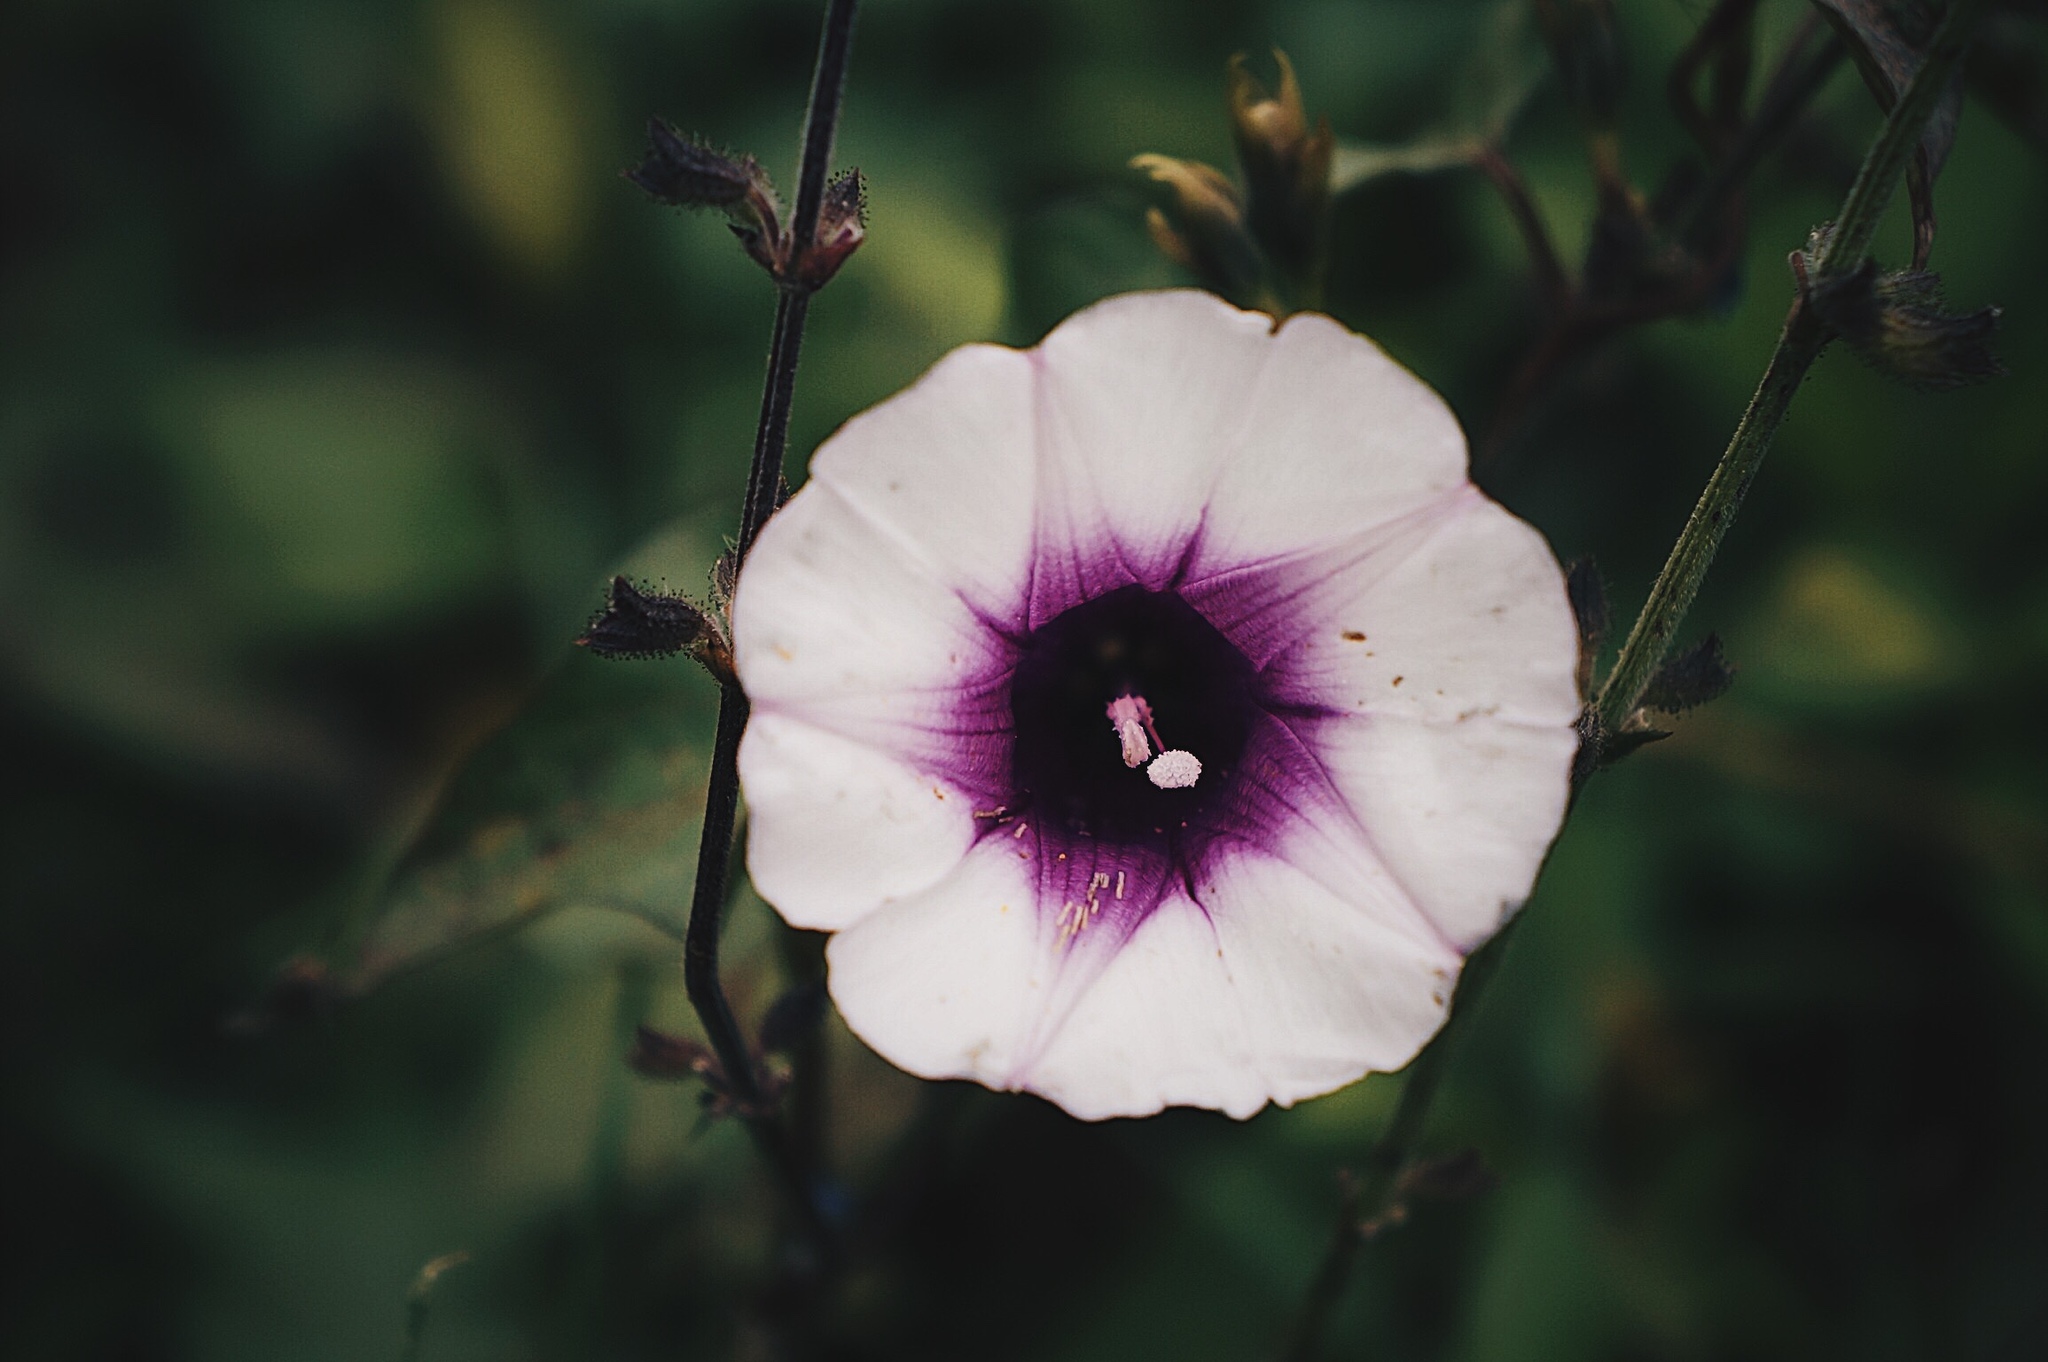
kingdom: Plantae
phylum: Tracheophyta
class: Magnoliopsida
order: Solanales
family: Convolvulaceae
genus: Ipomoea
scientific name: Ipomoea trifida
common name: Cotton morningglory
